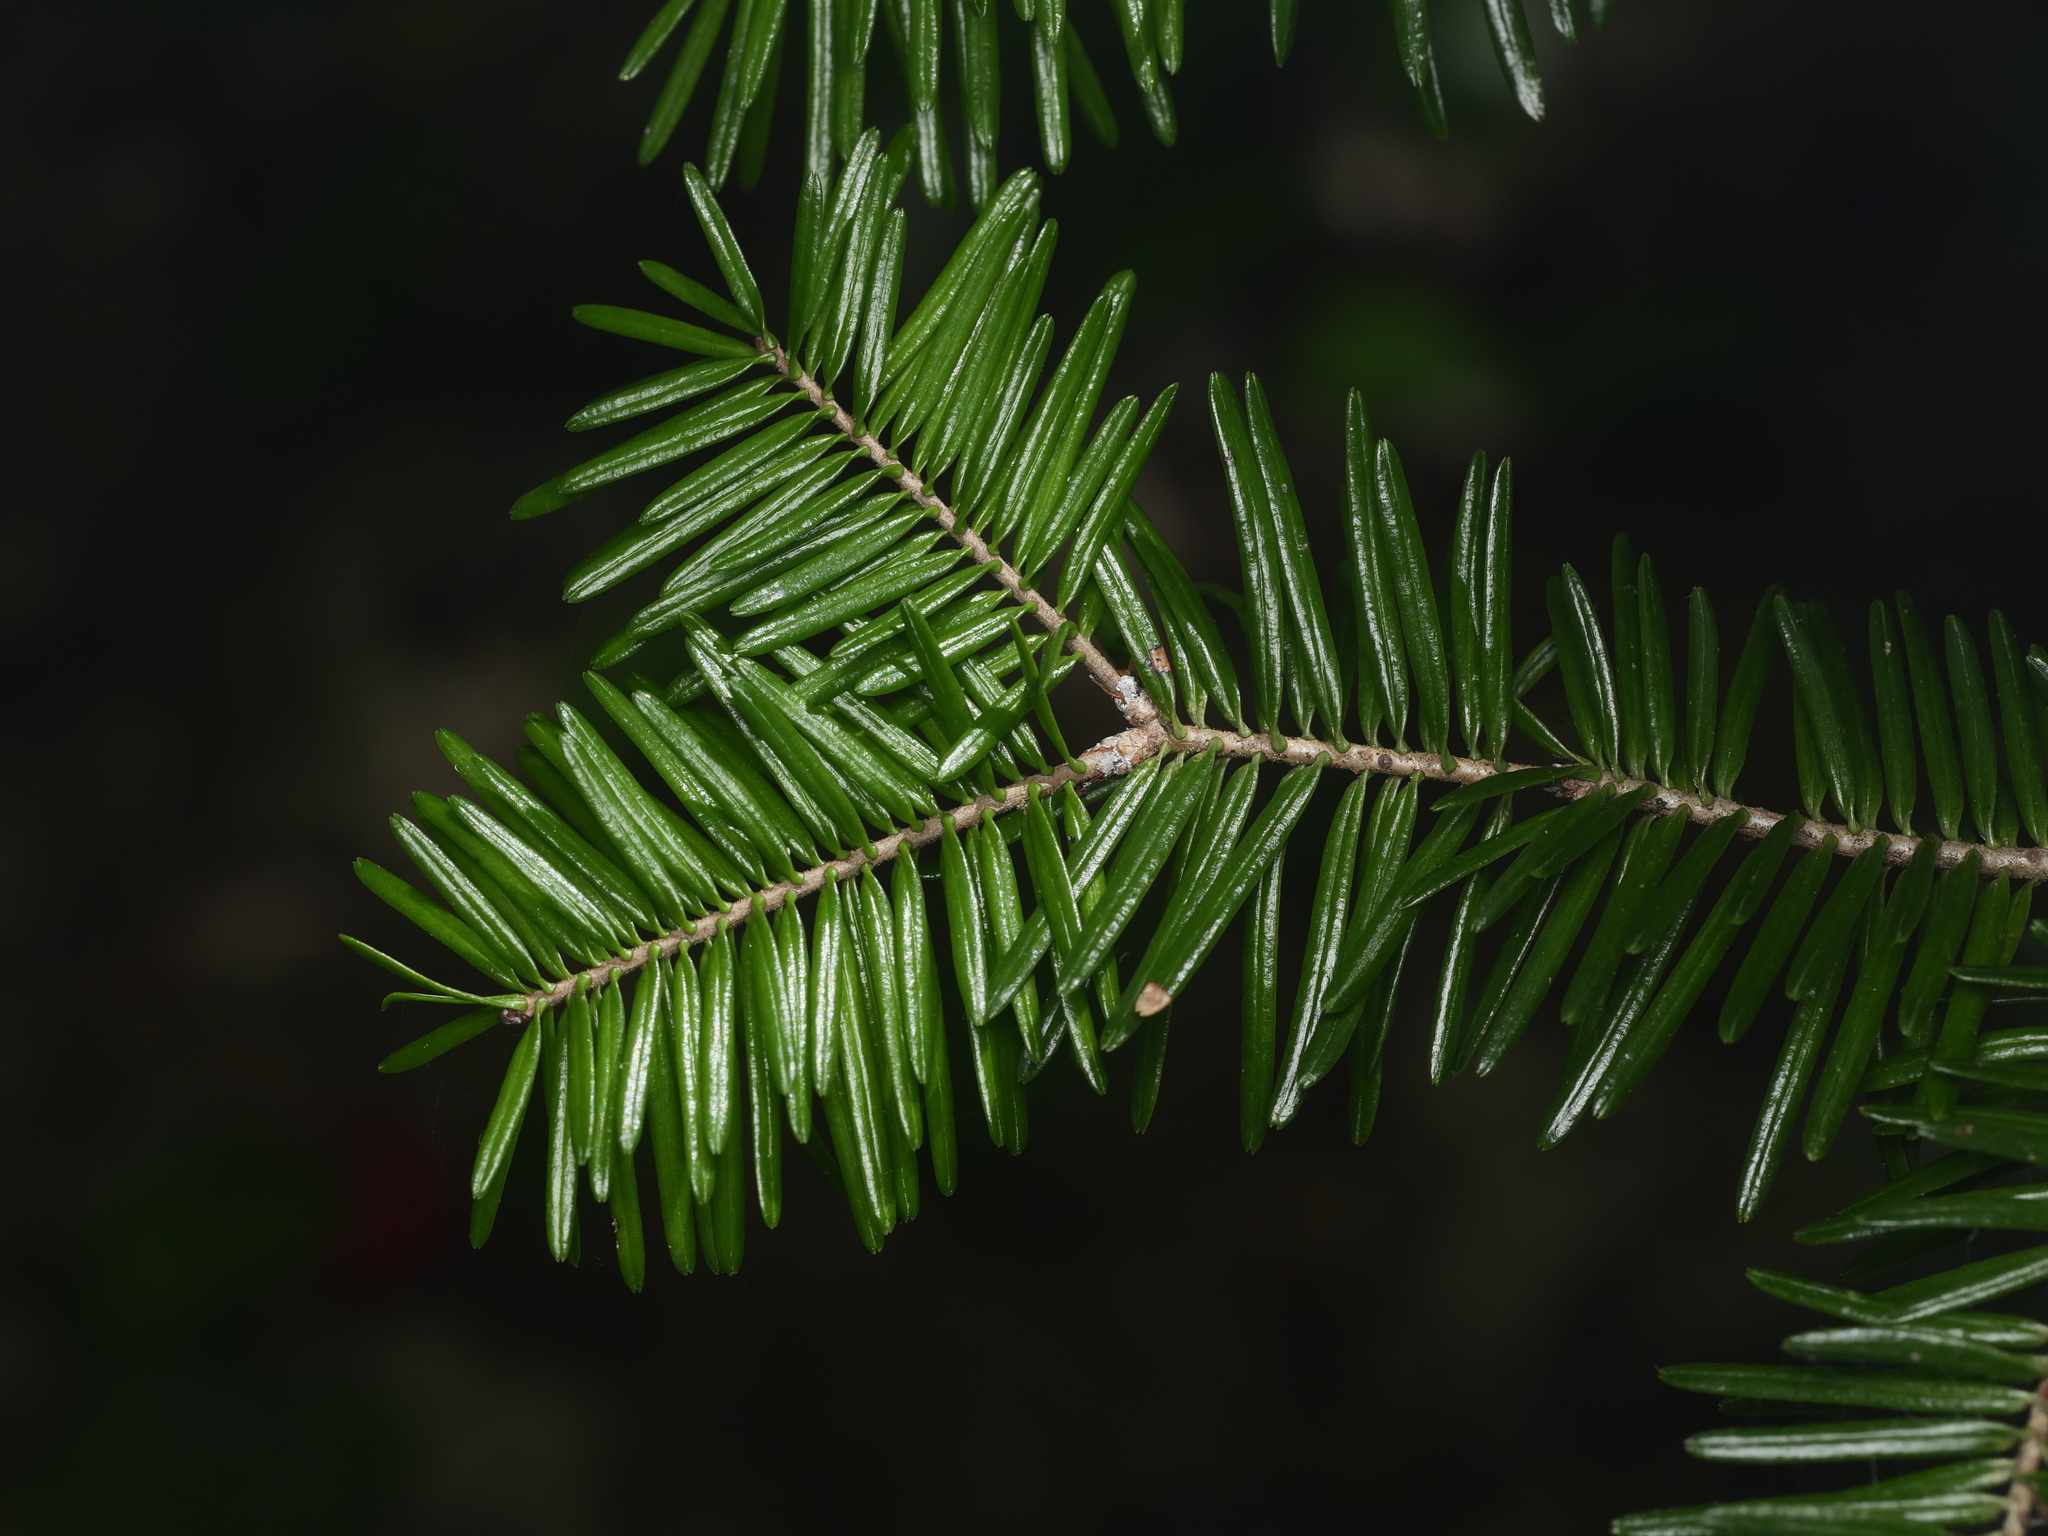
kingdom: Plantae
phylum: Tracheophyta
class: Pinopsida
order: Pinales
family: Pinaceae
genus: Abies
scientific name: Abies balsamea
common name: Balsam fir
